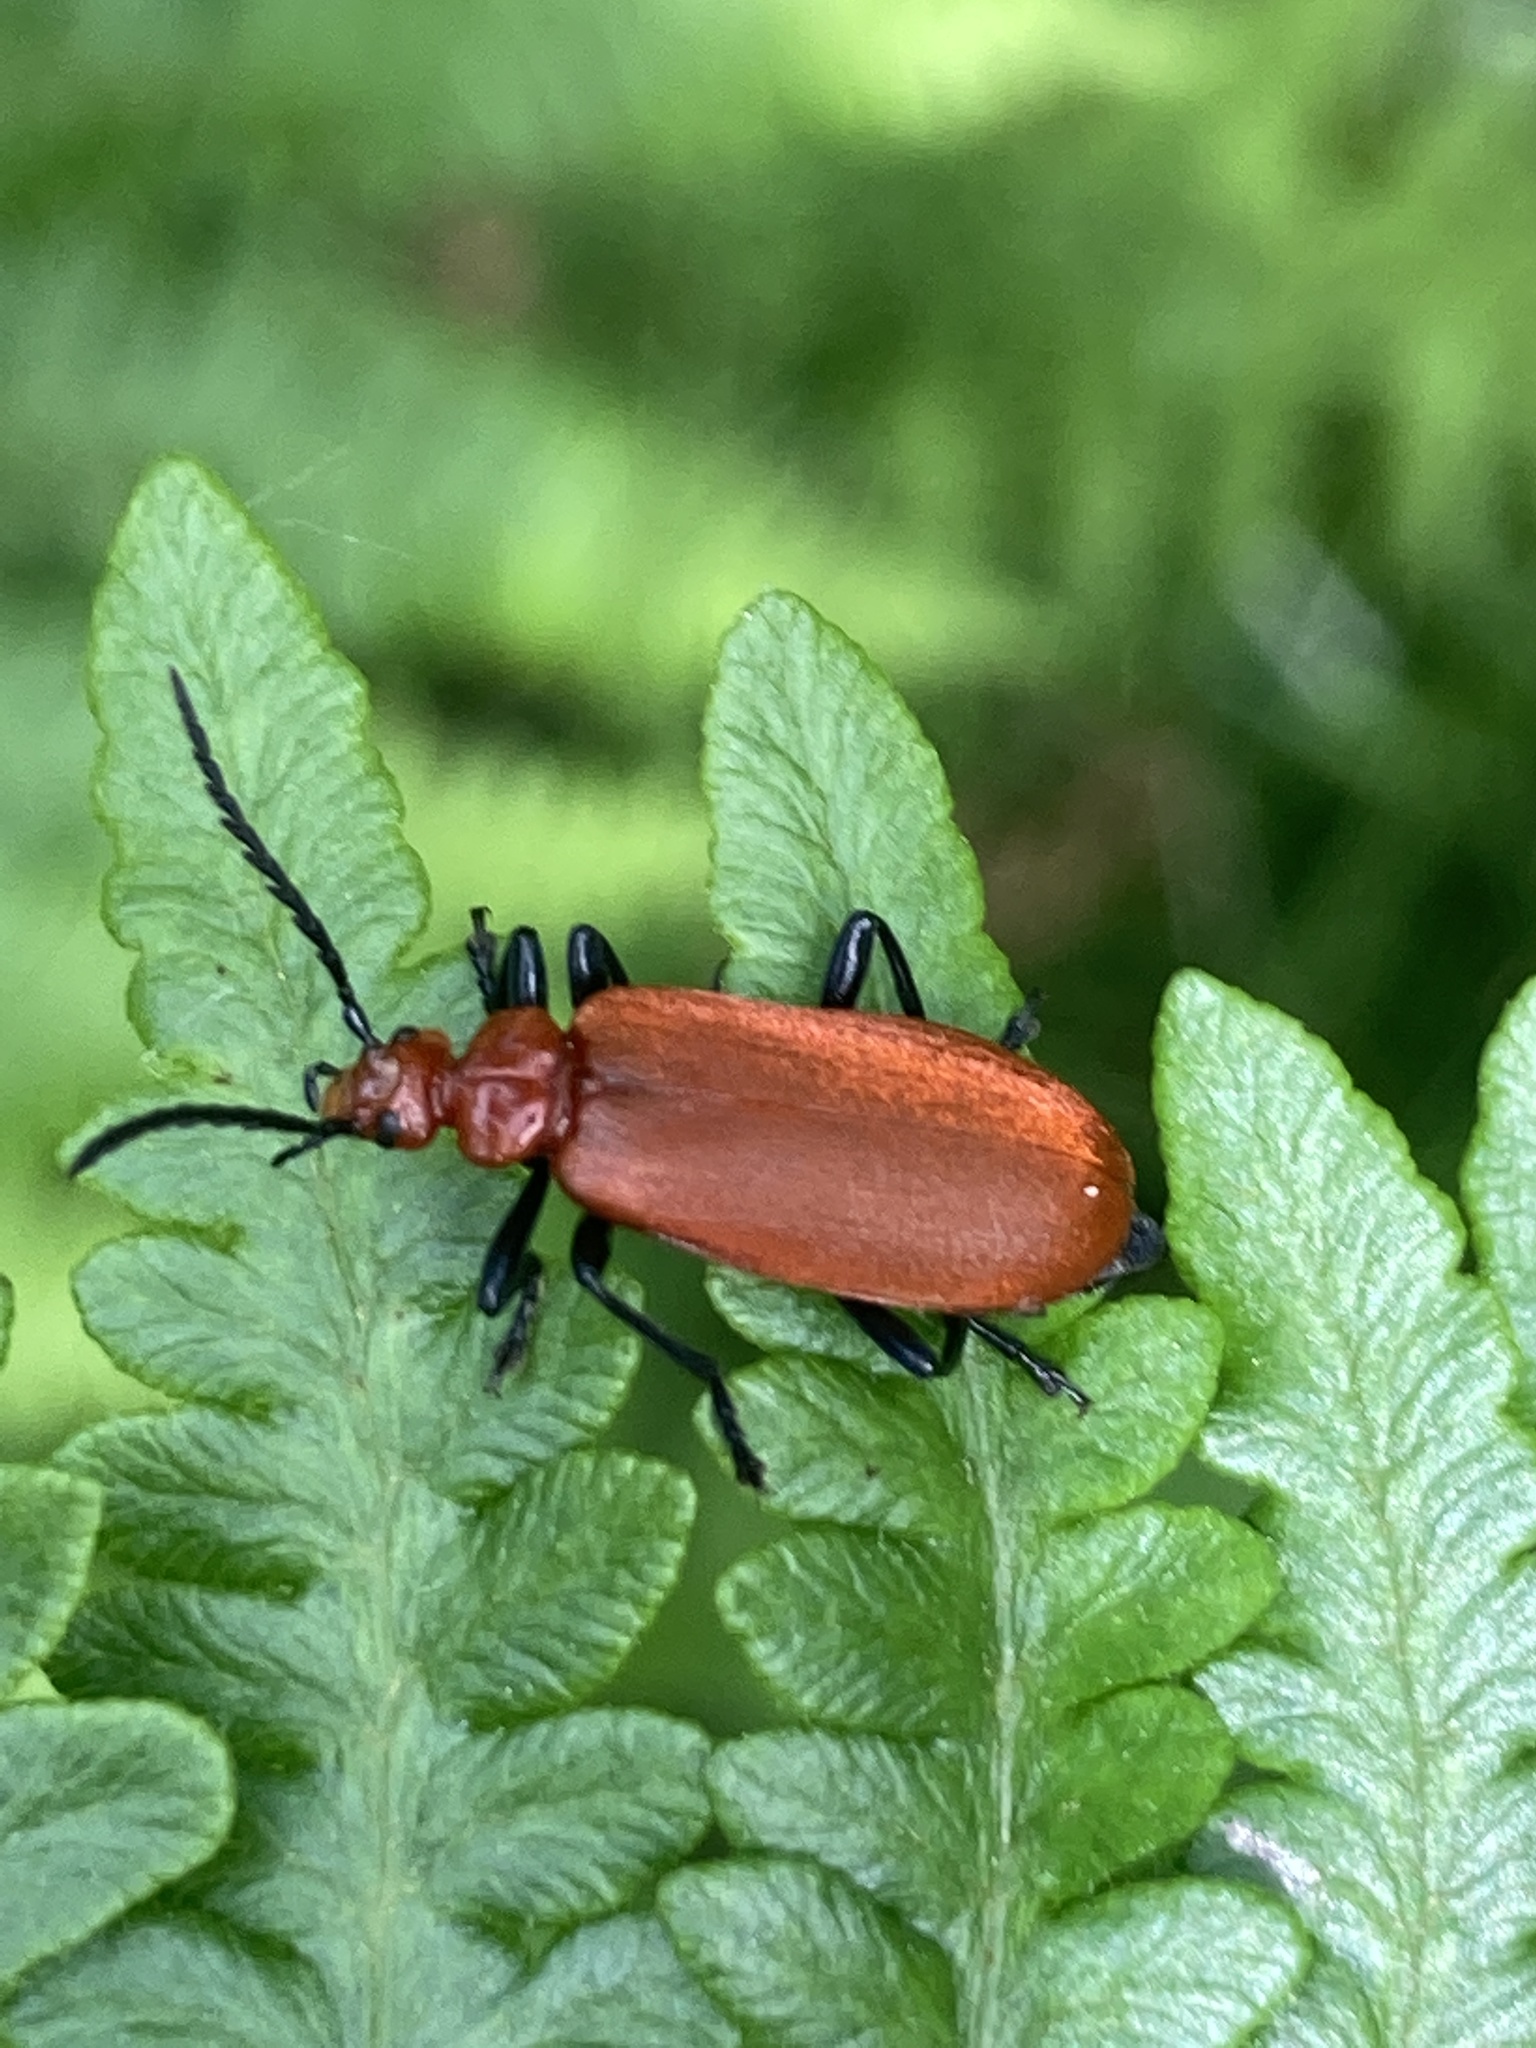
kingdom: Animalia
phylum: Arthropoda
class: Insecta
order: Coleoptera
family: Pyrochroidae
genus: Pyrochroa
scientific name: Pyrochroa serraticornis
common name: Red-headed cardinal beetle
